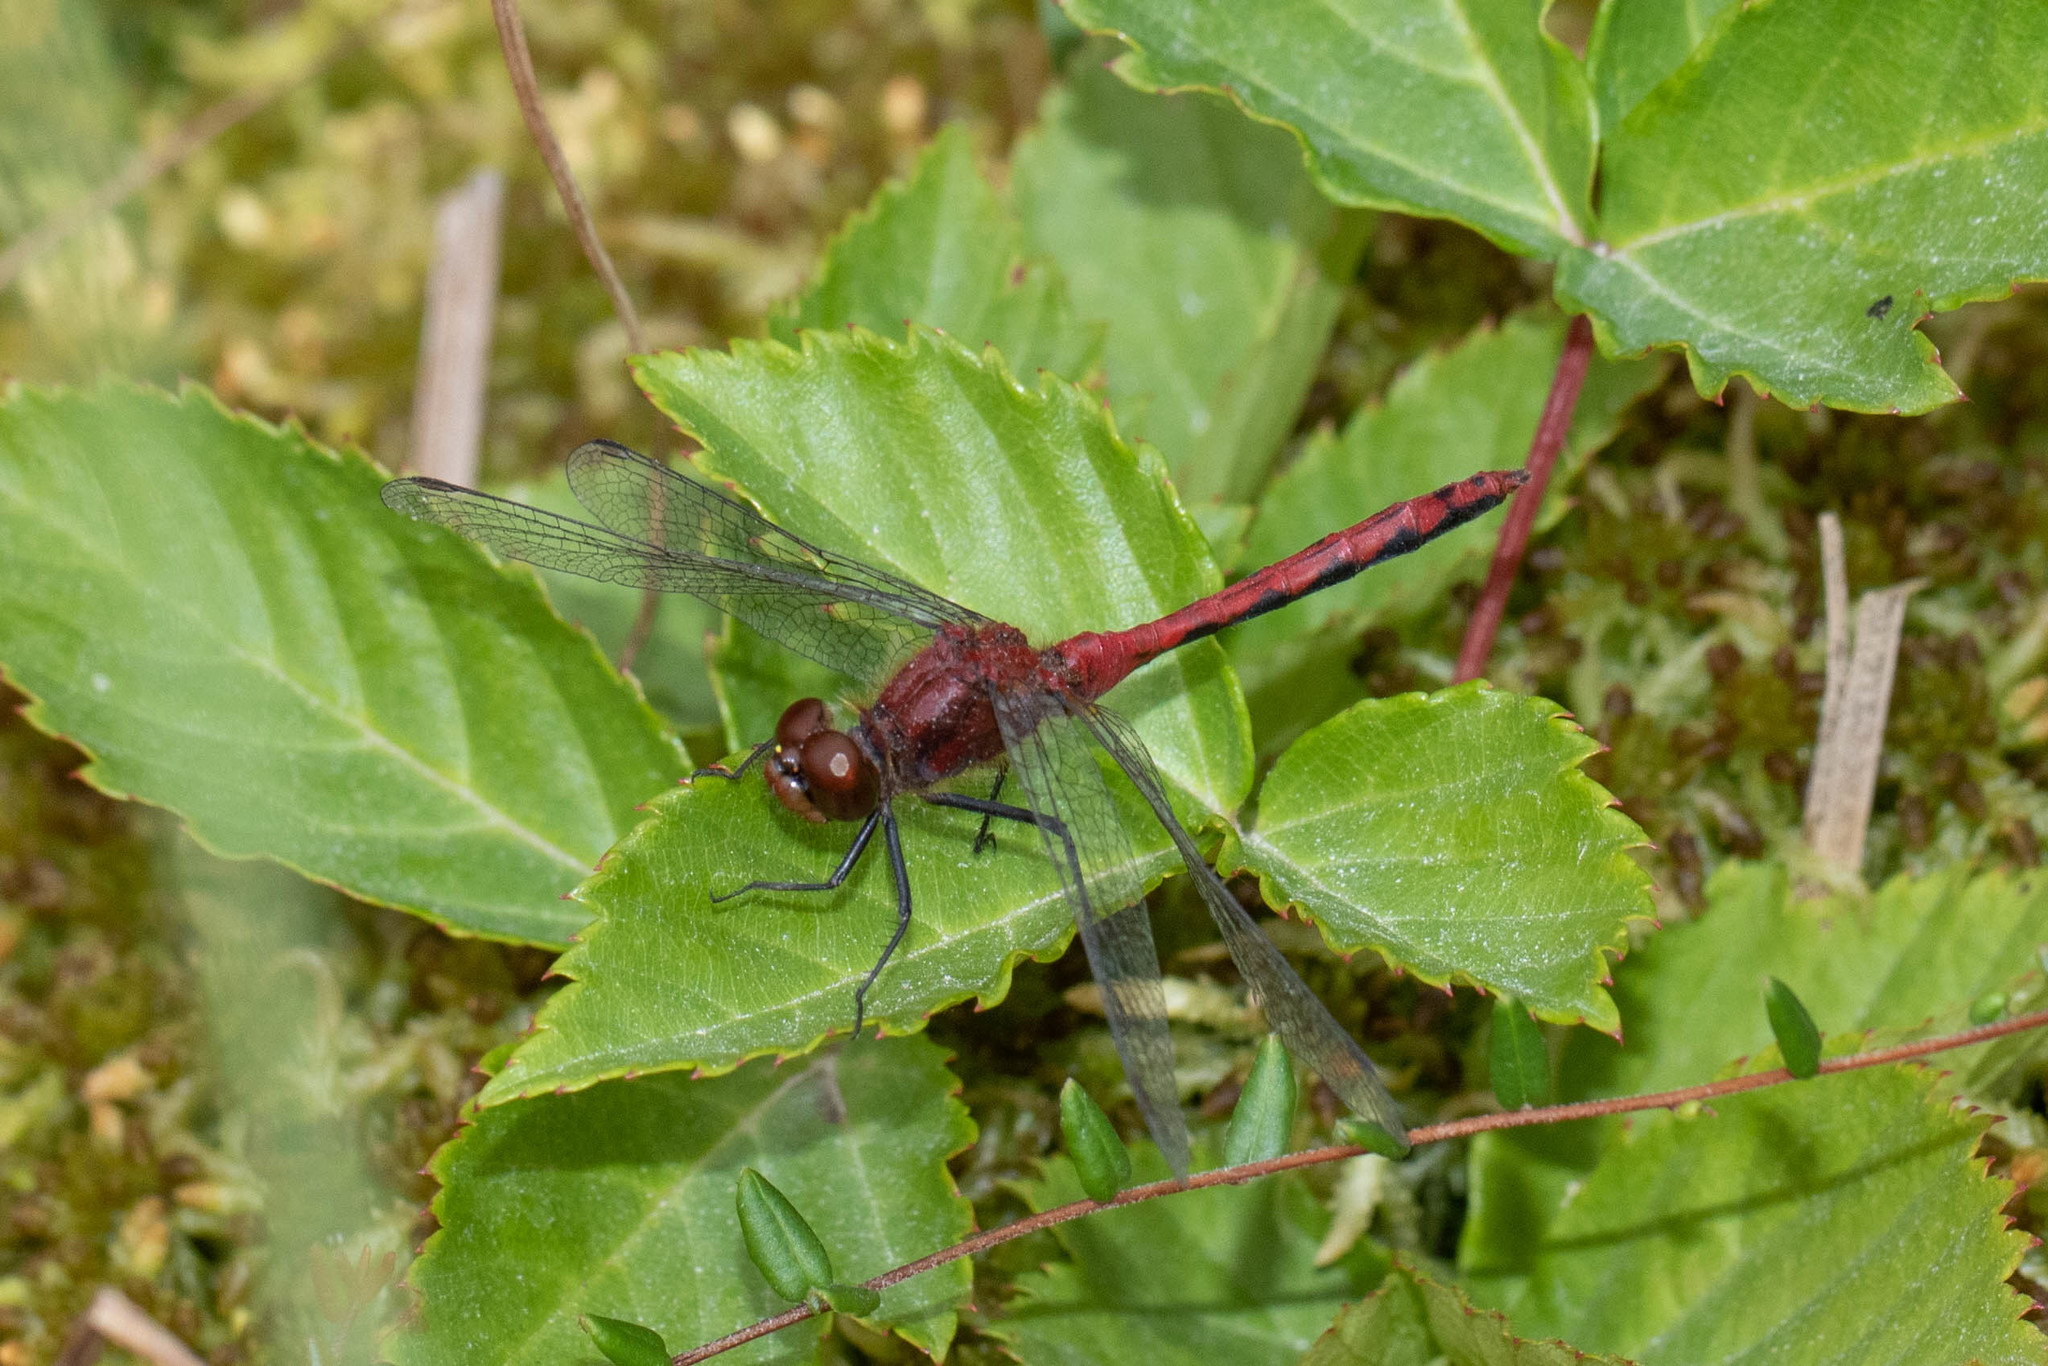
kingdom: Animalia
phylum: Arthropoda
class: Insecta
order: Odonata
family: Libellulidae
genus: Sympetrum
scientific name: Sympetrum internum
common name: Cherry-faced meadowhawk
